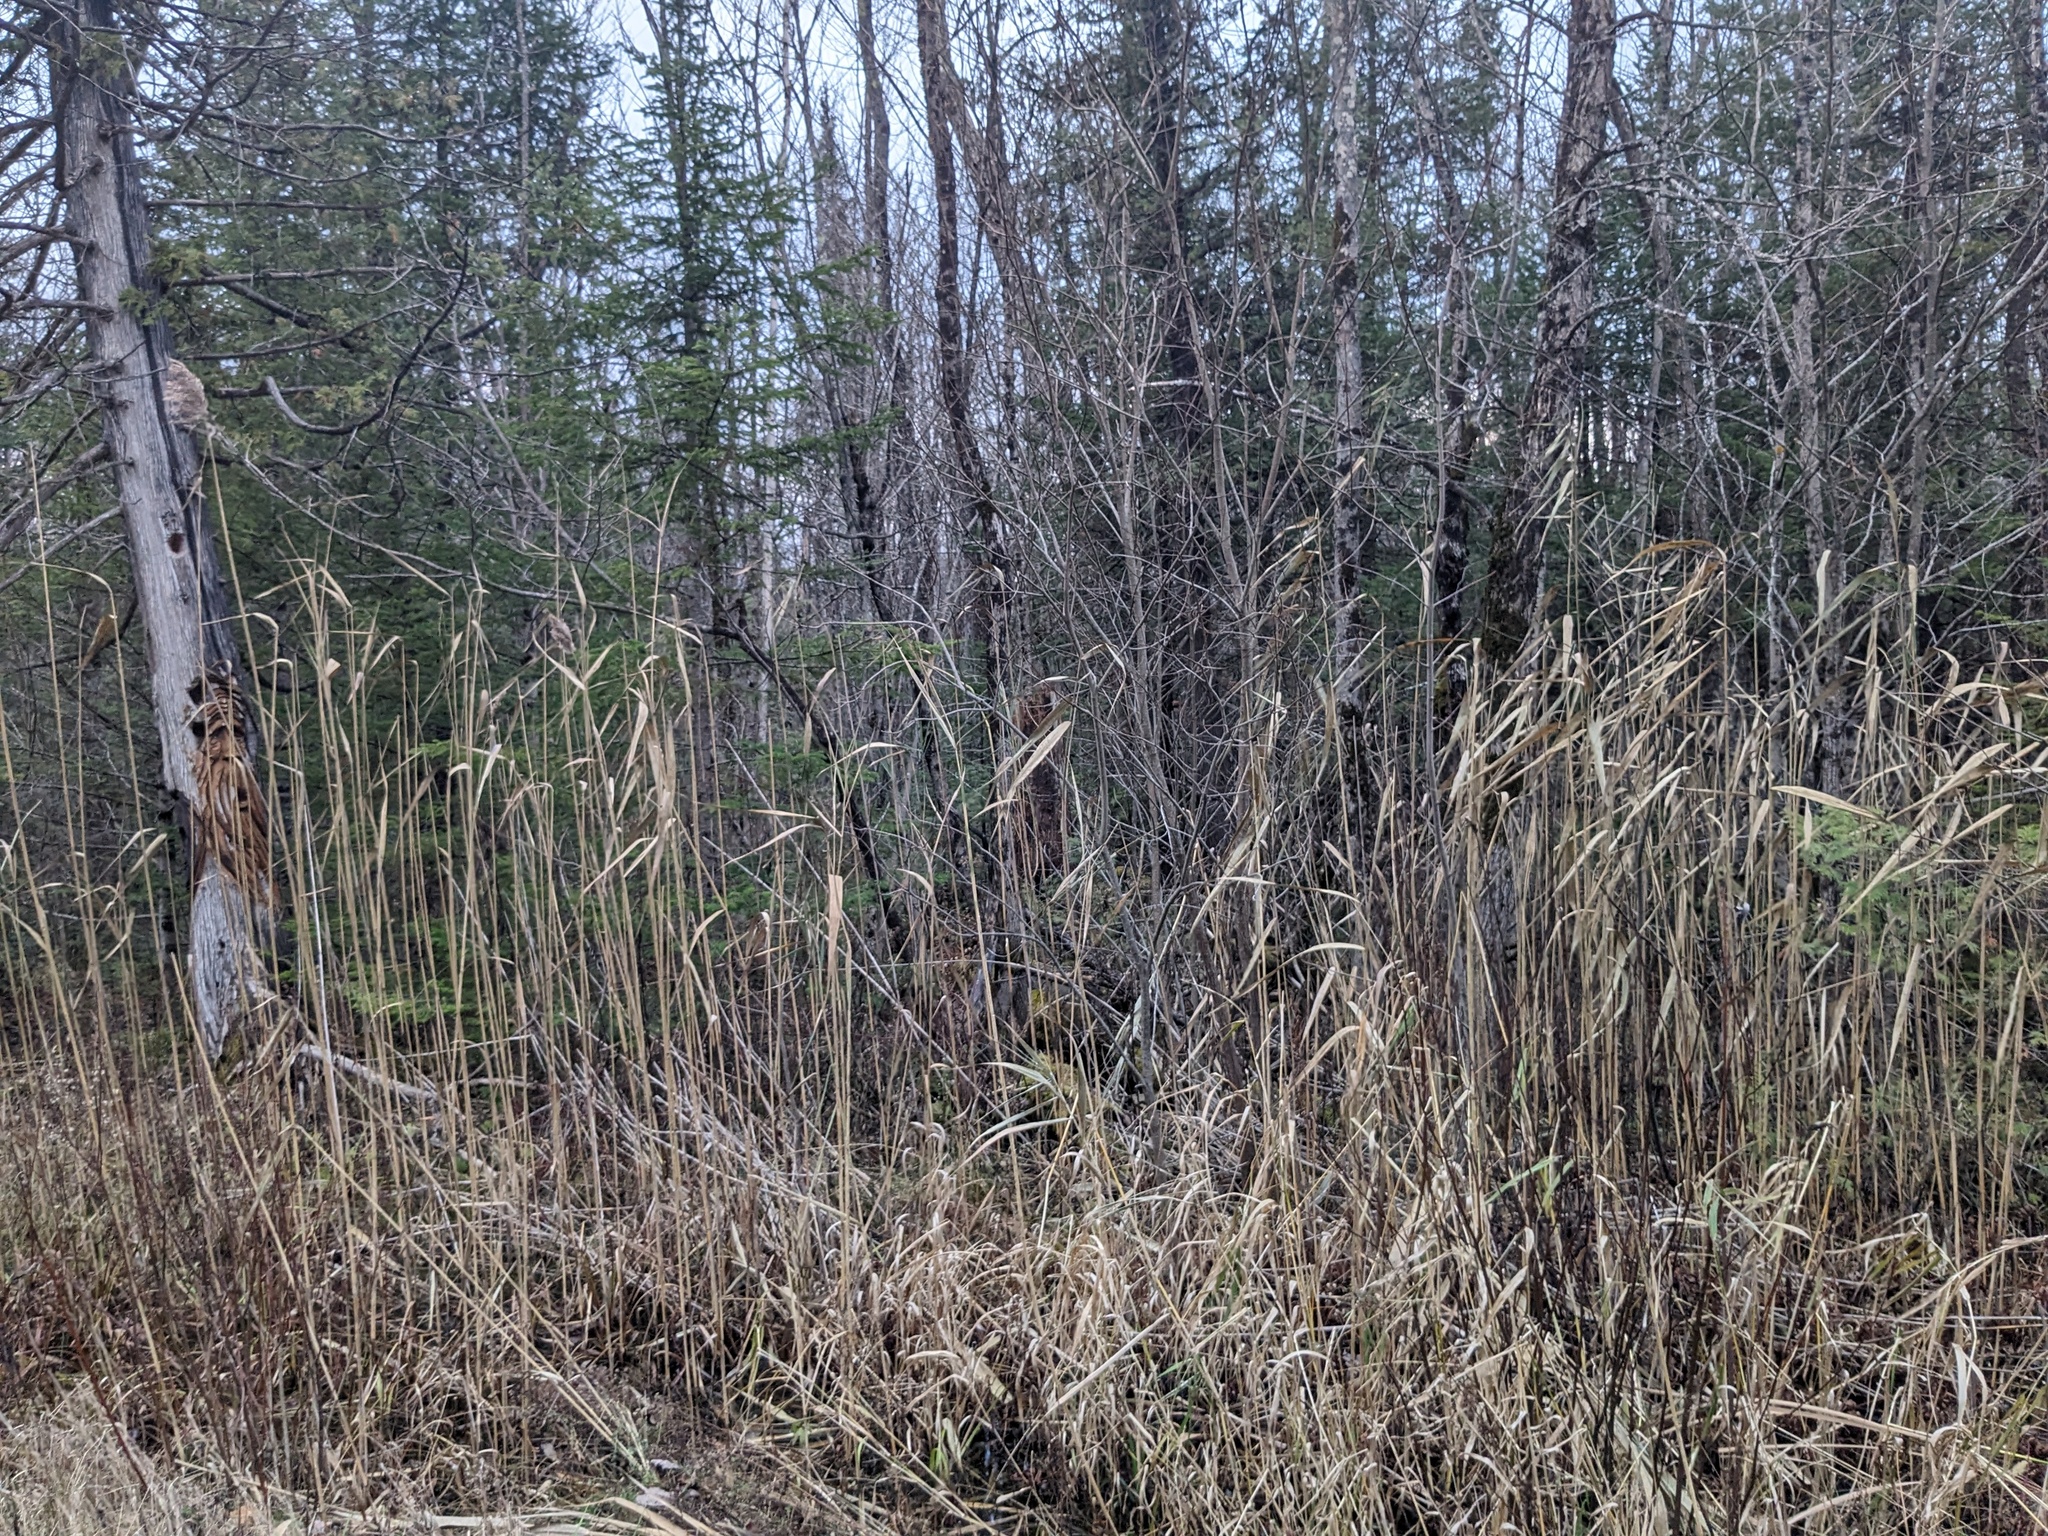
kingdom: Plantae
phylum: Tracheophyta
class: Liliopsida
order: Poales
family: Poaceae
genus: Phragmites
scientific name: Phragmites australis
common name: Common reed
